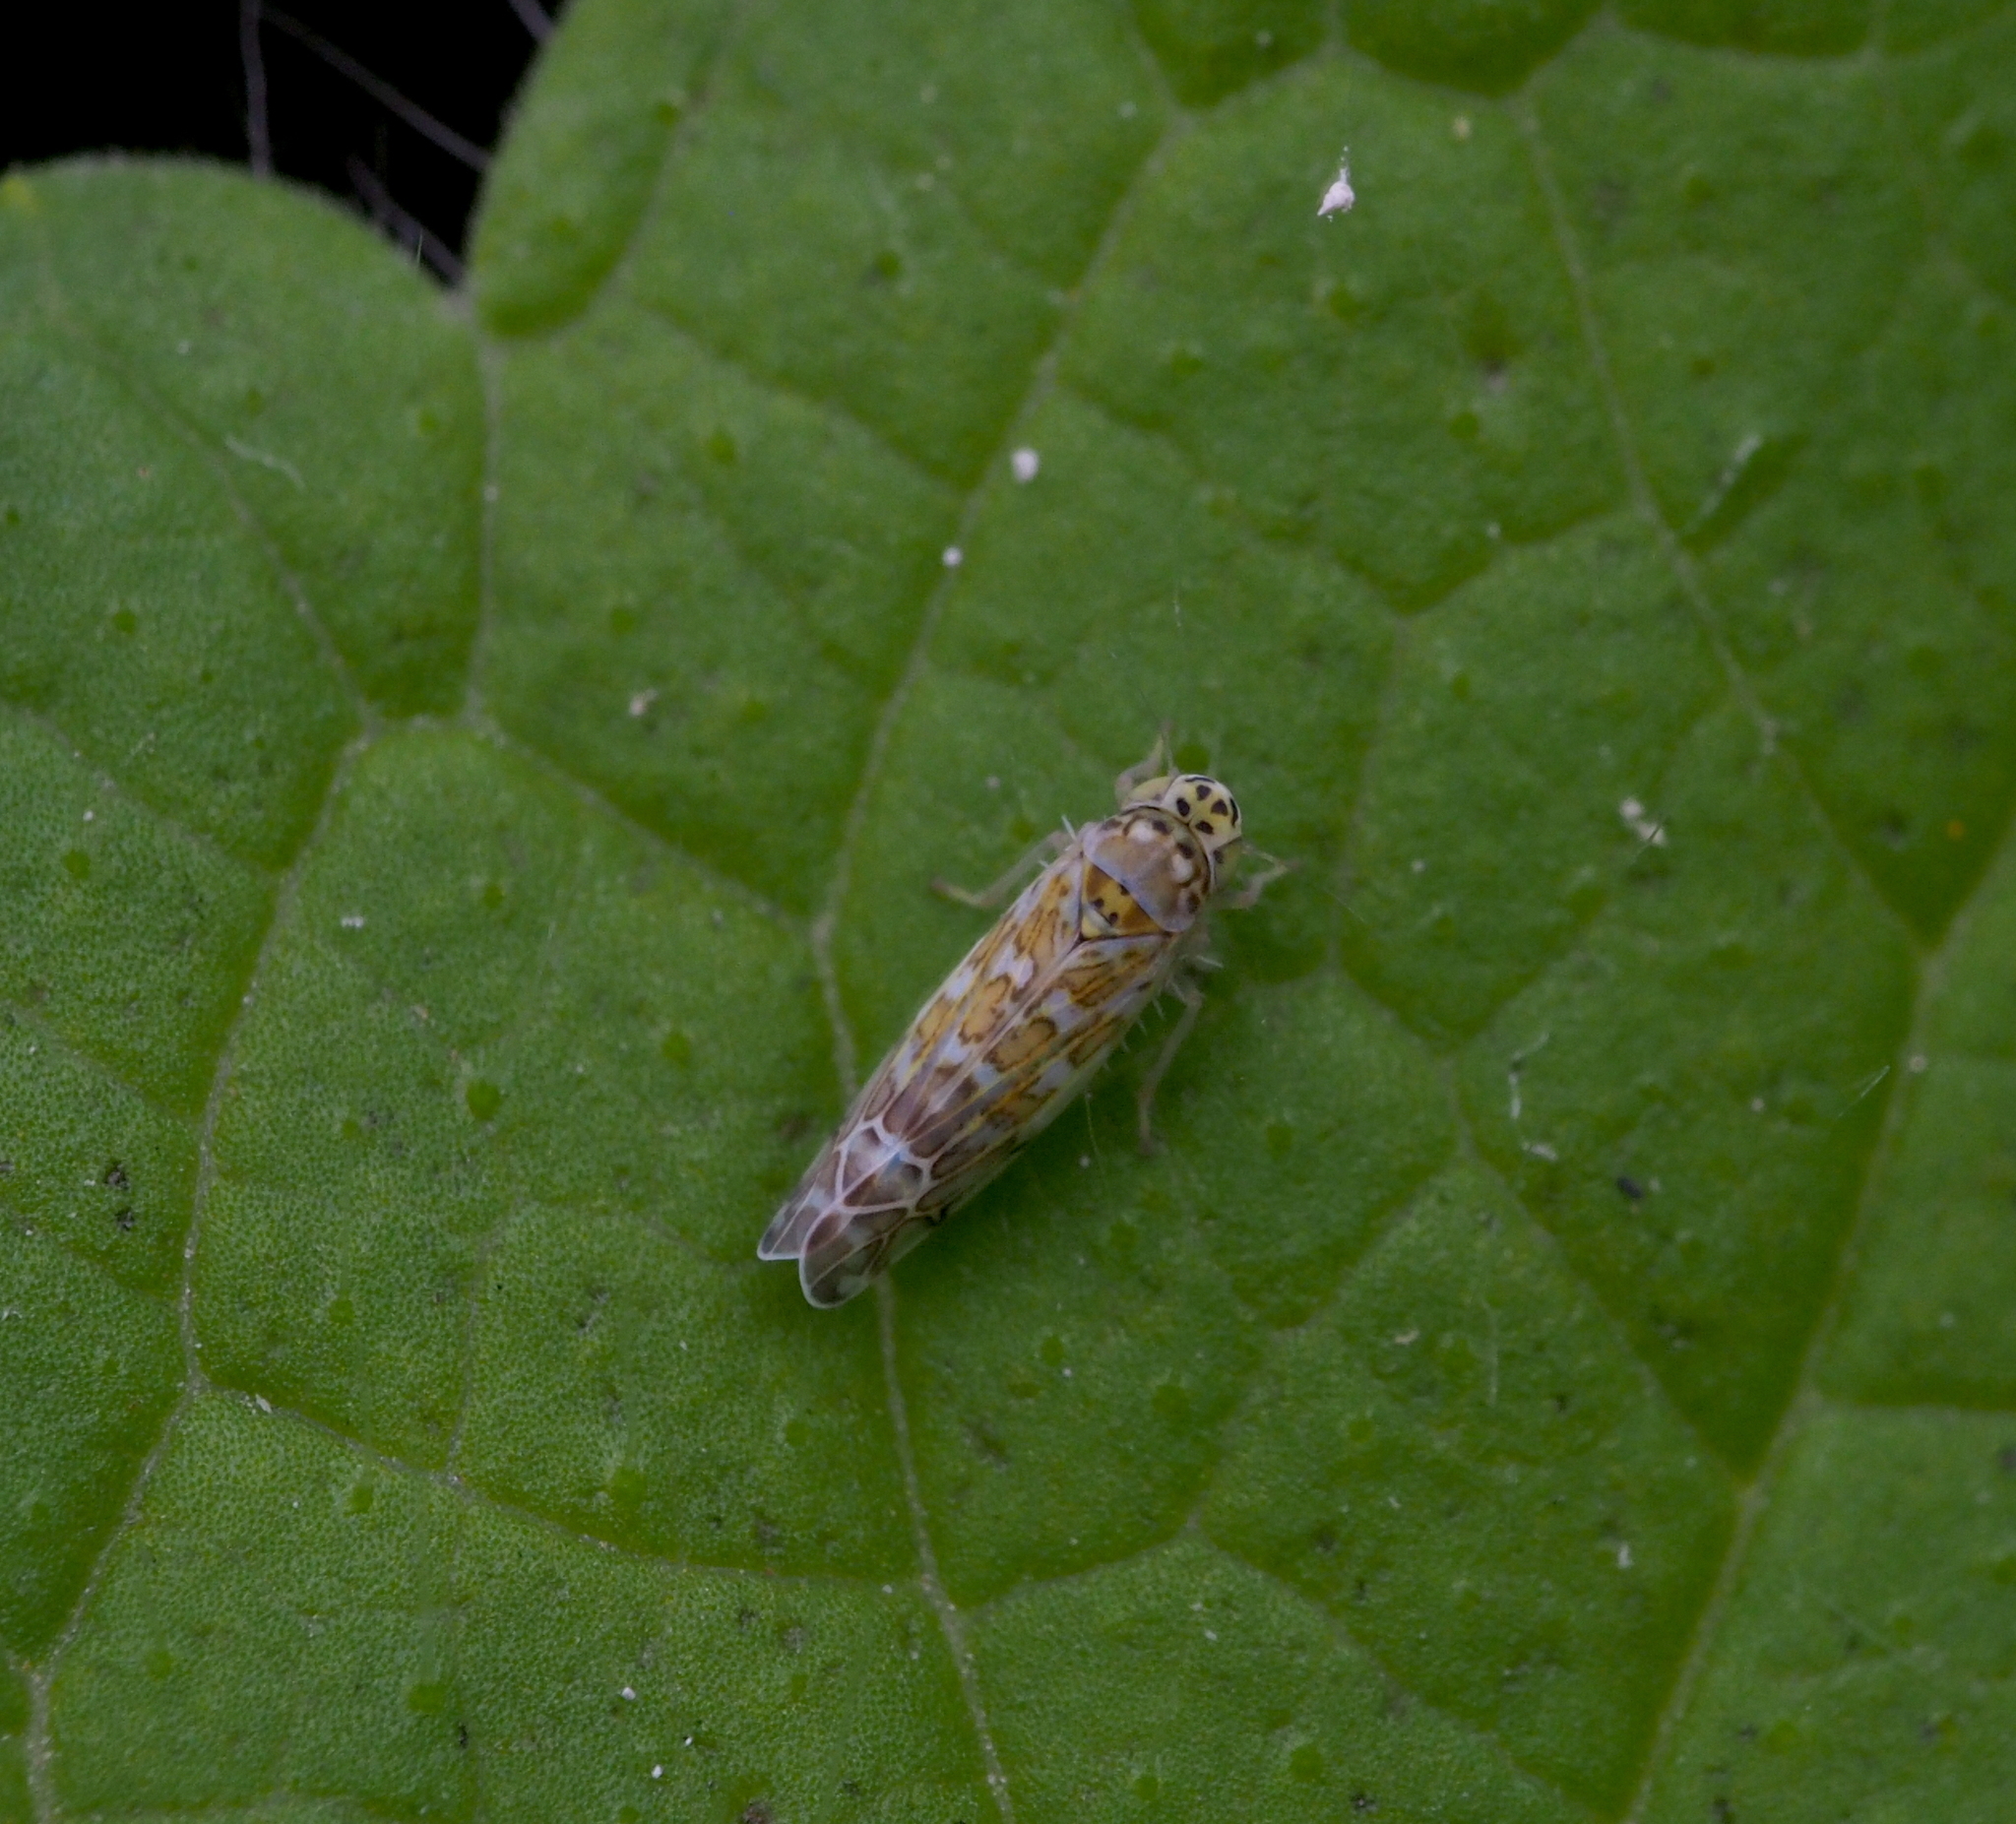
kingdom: Animalia
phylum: Arthropoda
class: Insecta
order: Hemiptera
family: Cicadellidae
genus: Eupteryx
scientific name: Eupteryx decemnotata
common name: Ligurian leafhopper
